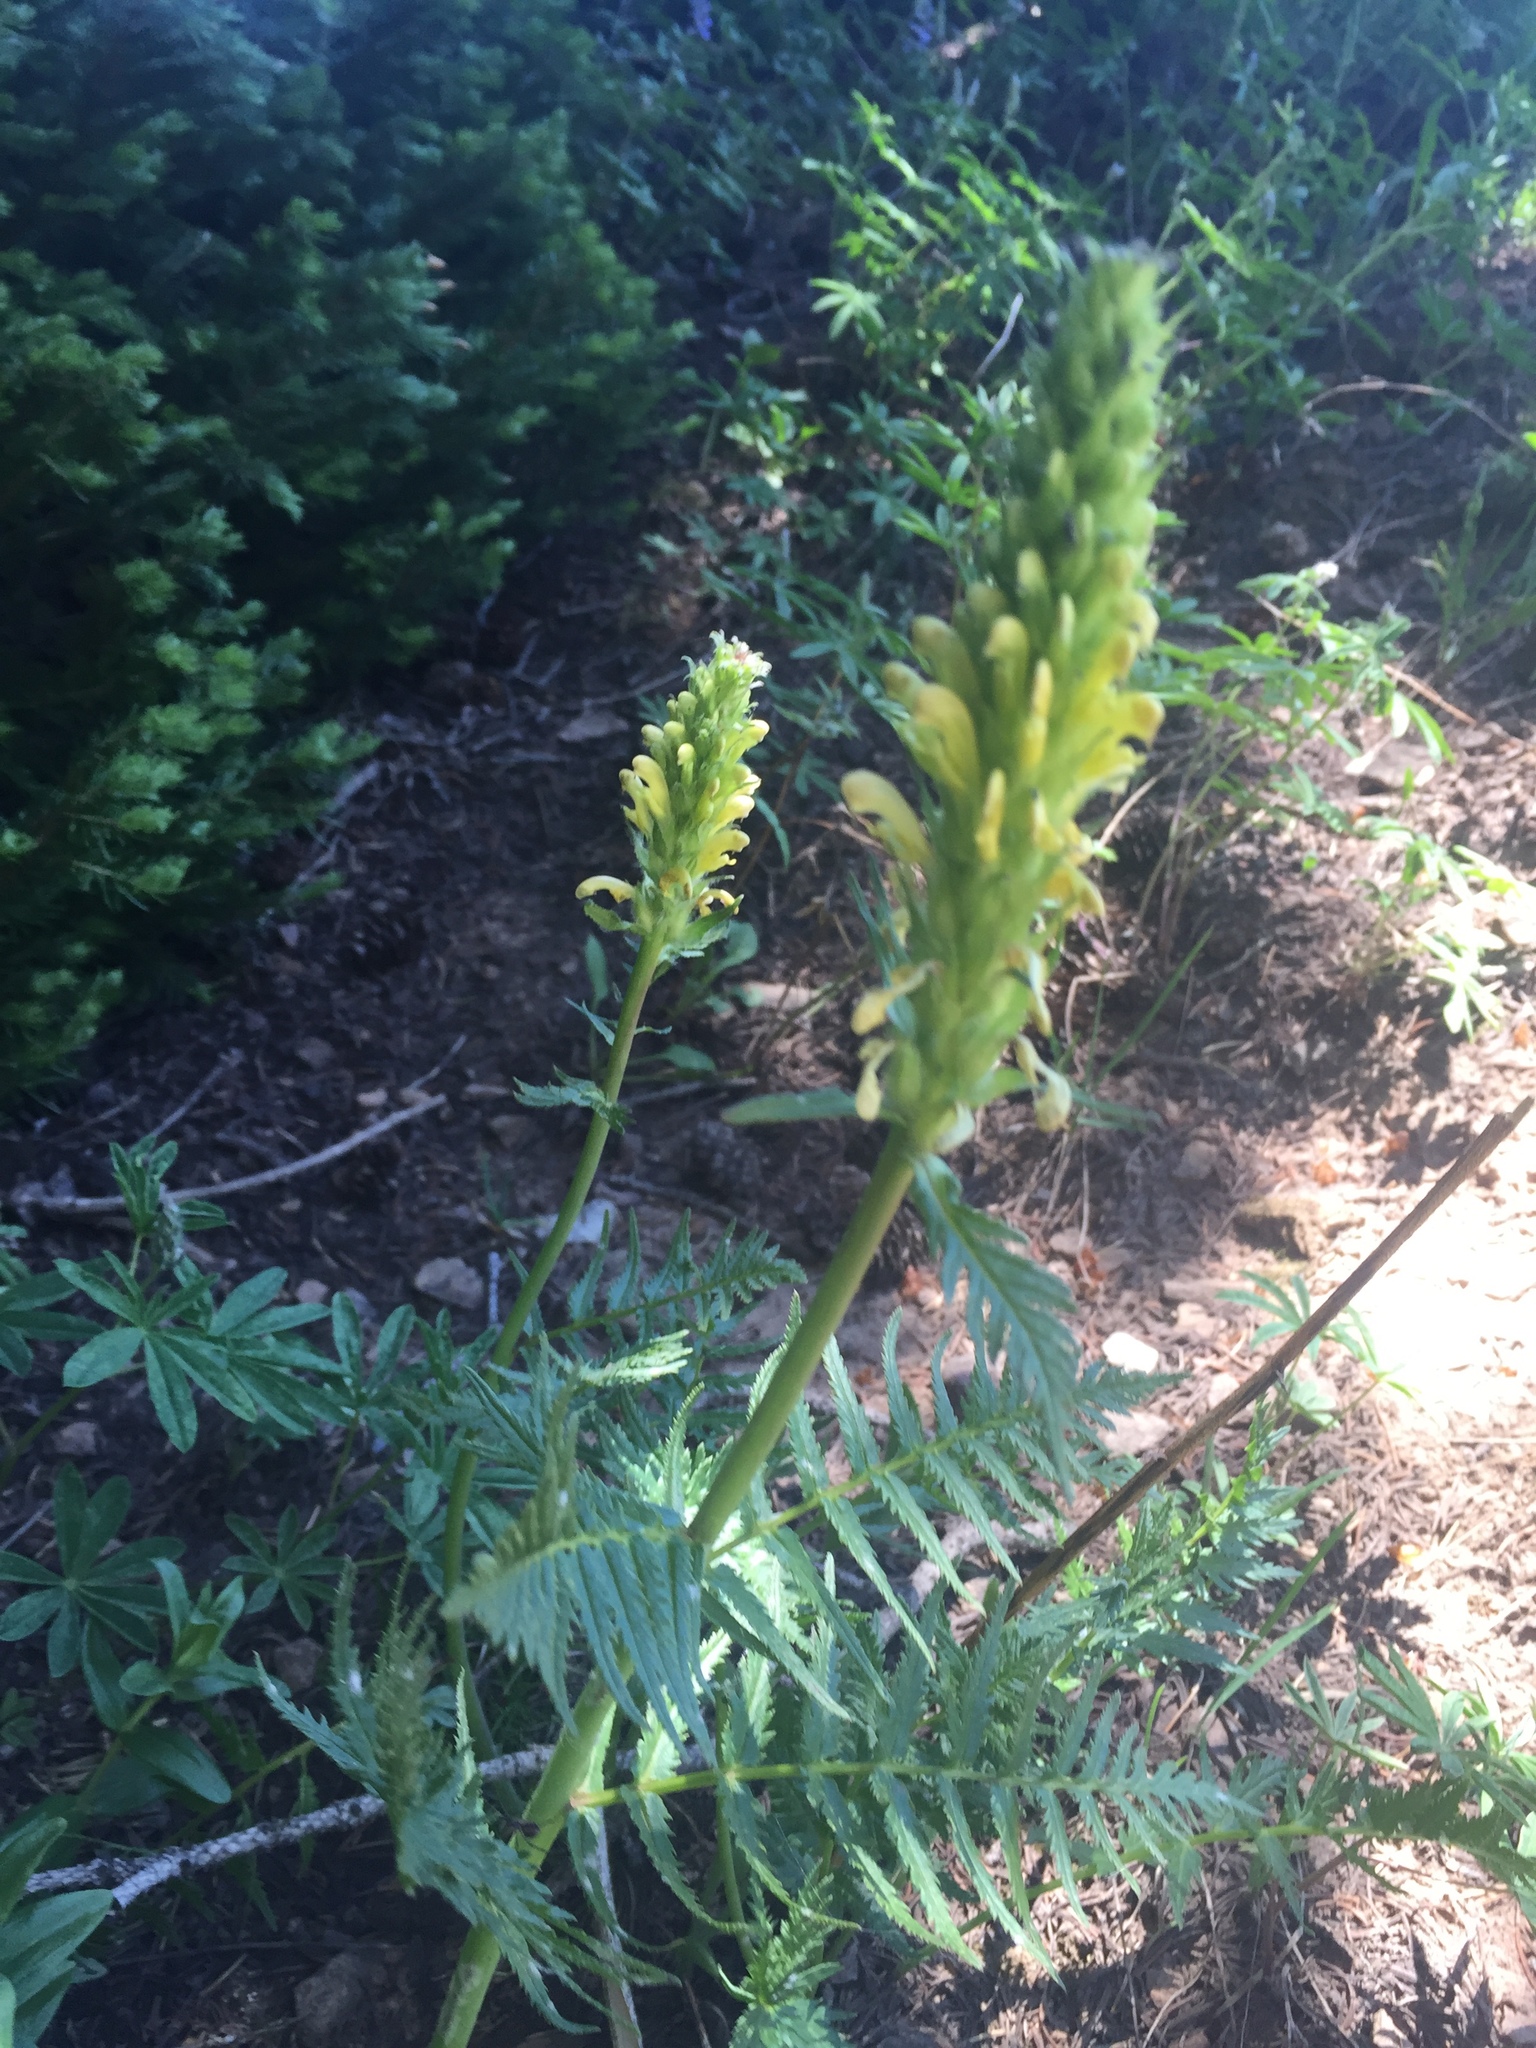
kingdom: Plantae
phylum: Tracheophyta
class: Magnoliopsida
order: Lamiales
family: Orobanchaceae
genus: Pedicularis
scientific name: Pedicularis bracteosa
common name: Bracted lousewort
